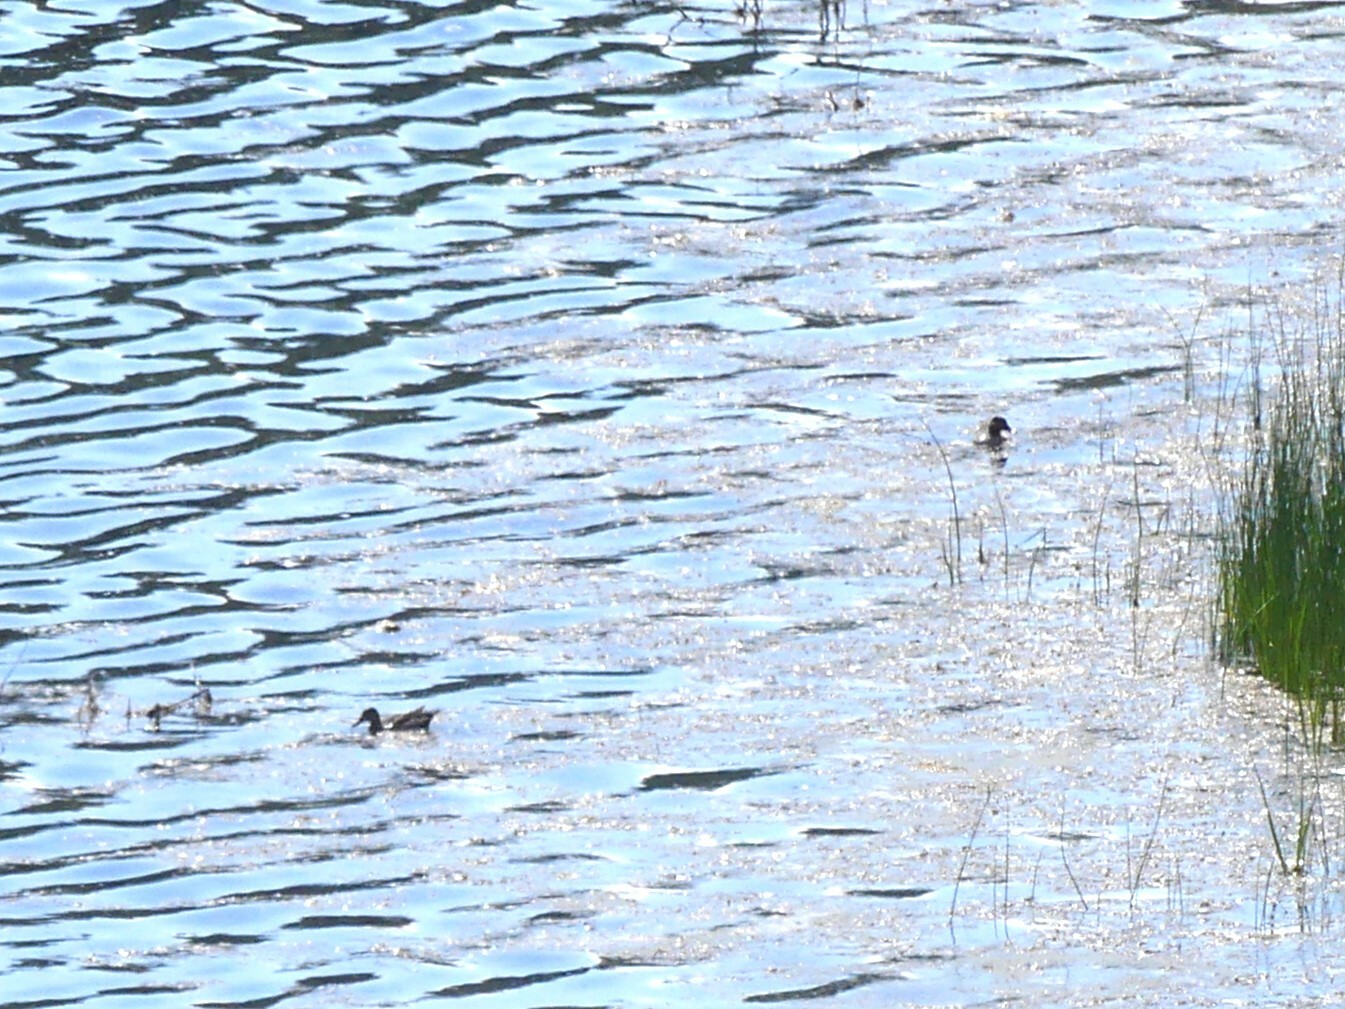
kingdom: Animalia
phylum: Chordata
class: Aves
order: Anseriformes
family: Anatidae
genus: Anas
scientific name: Anas crecca
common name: Eurasian teal
